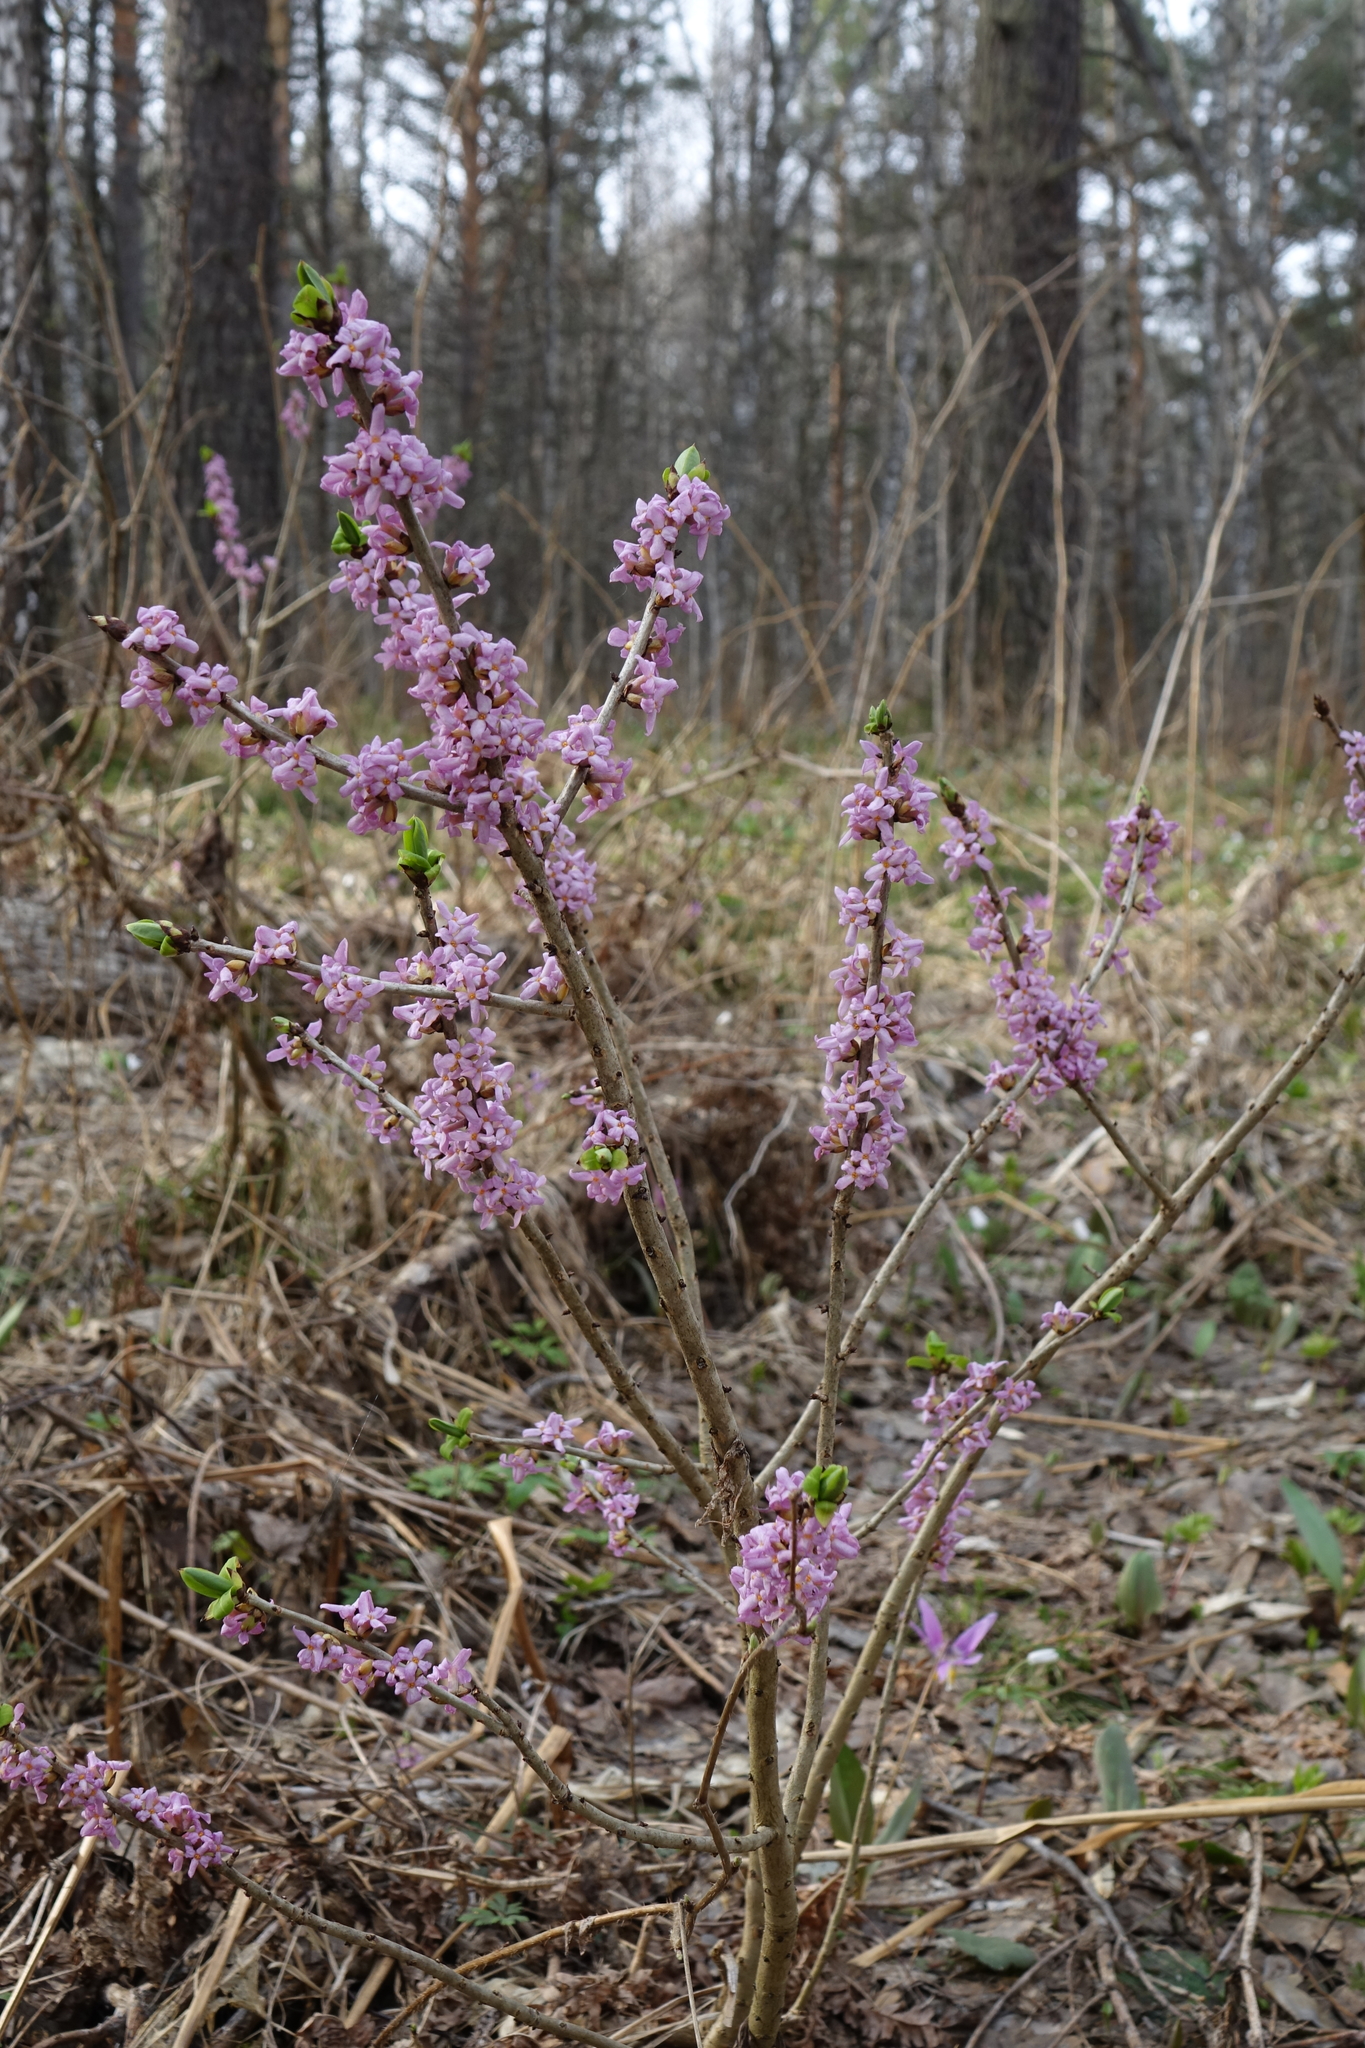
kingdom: Plantae
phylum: Tracheophyta
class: Magnoliopsida
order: Malvales
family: Thymelaeaceae
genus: Daphne
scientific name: Daphne mezereum
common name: Mezereon
